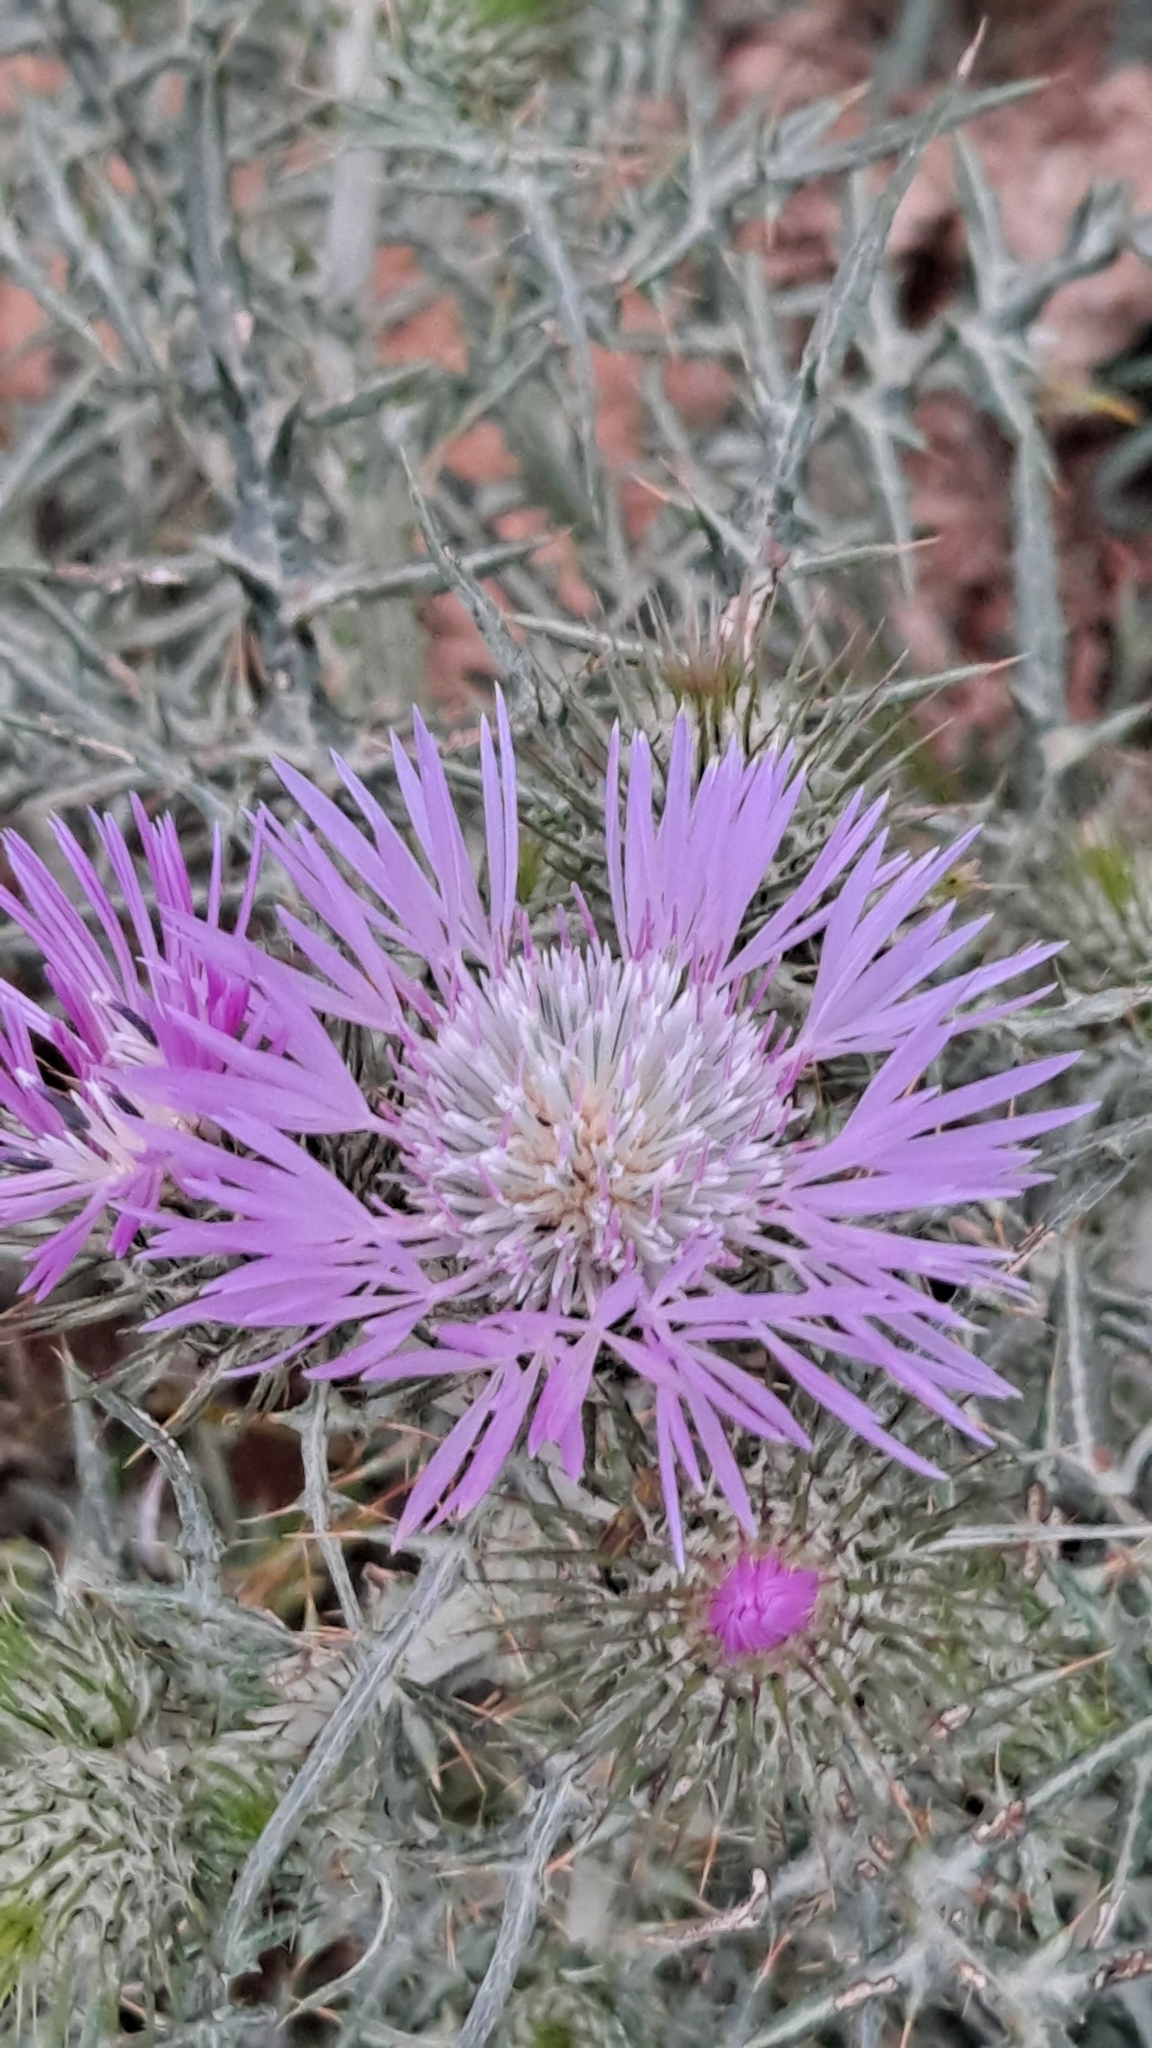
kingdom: Plantae
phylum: Tracheophyta
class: Magnoliopsida
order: Asterales
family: Asteraceae
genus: Galactites
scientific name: Galactites tomentosa
